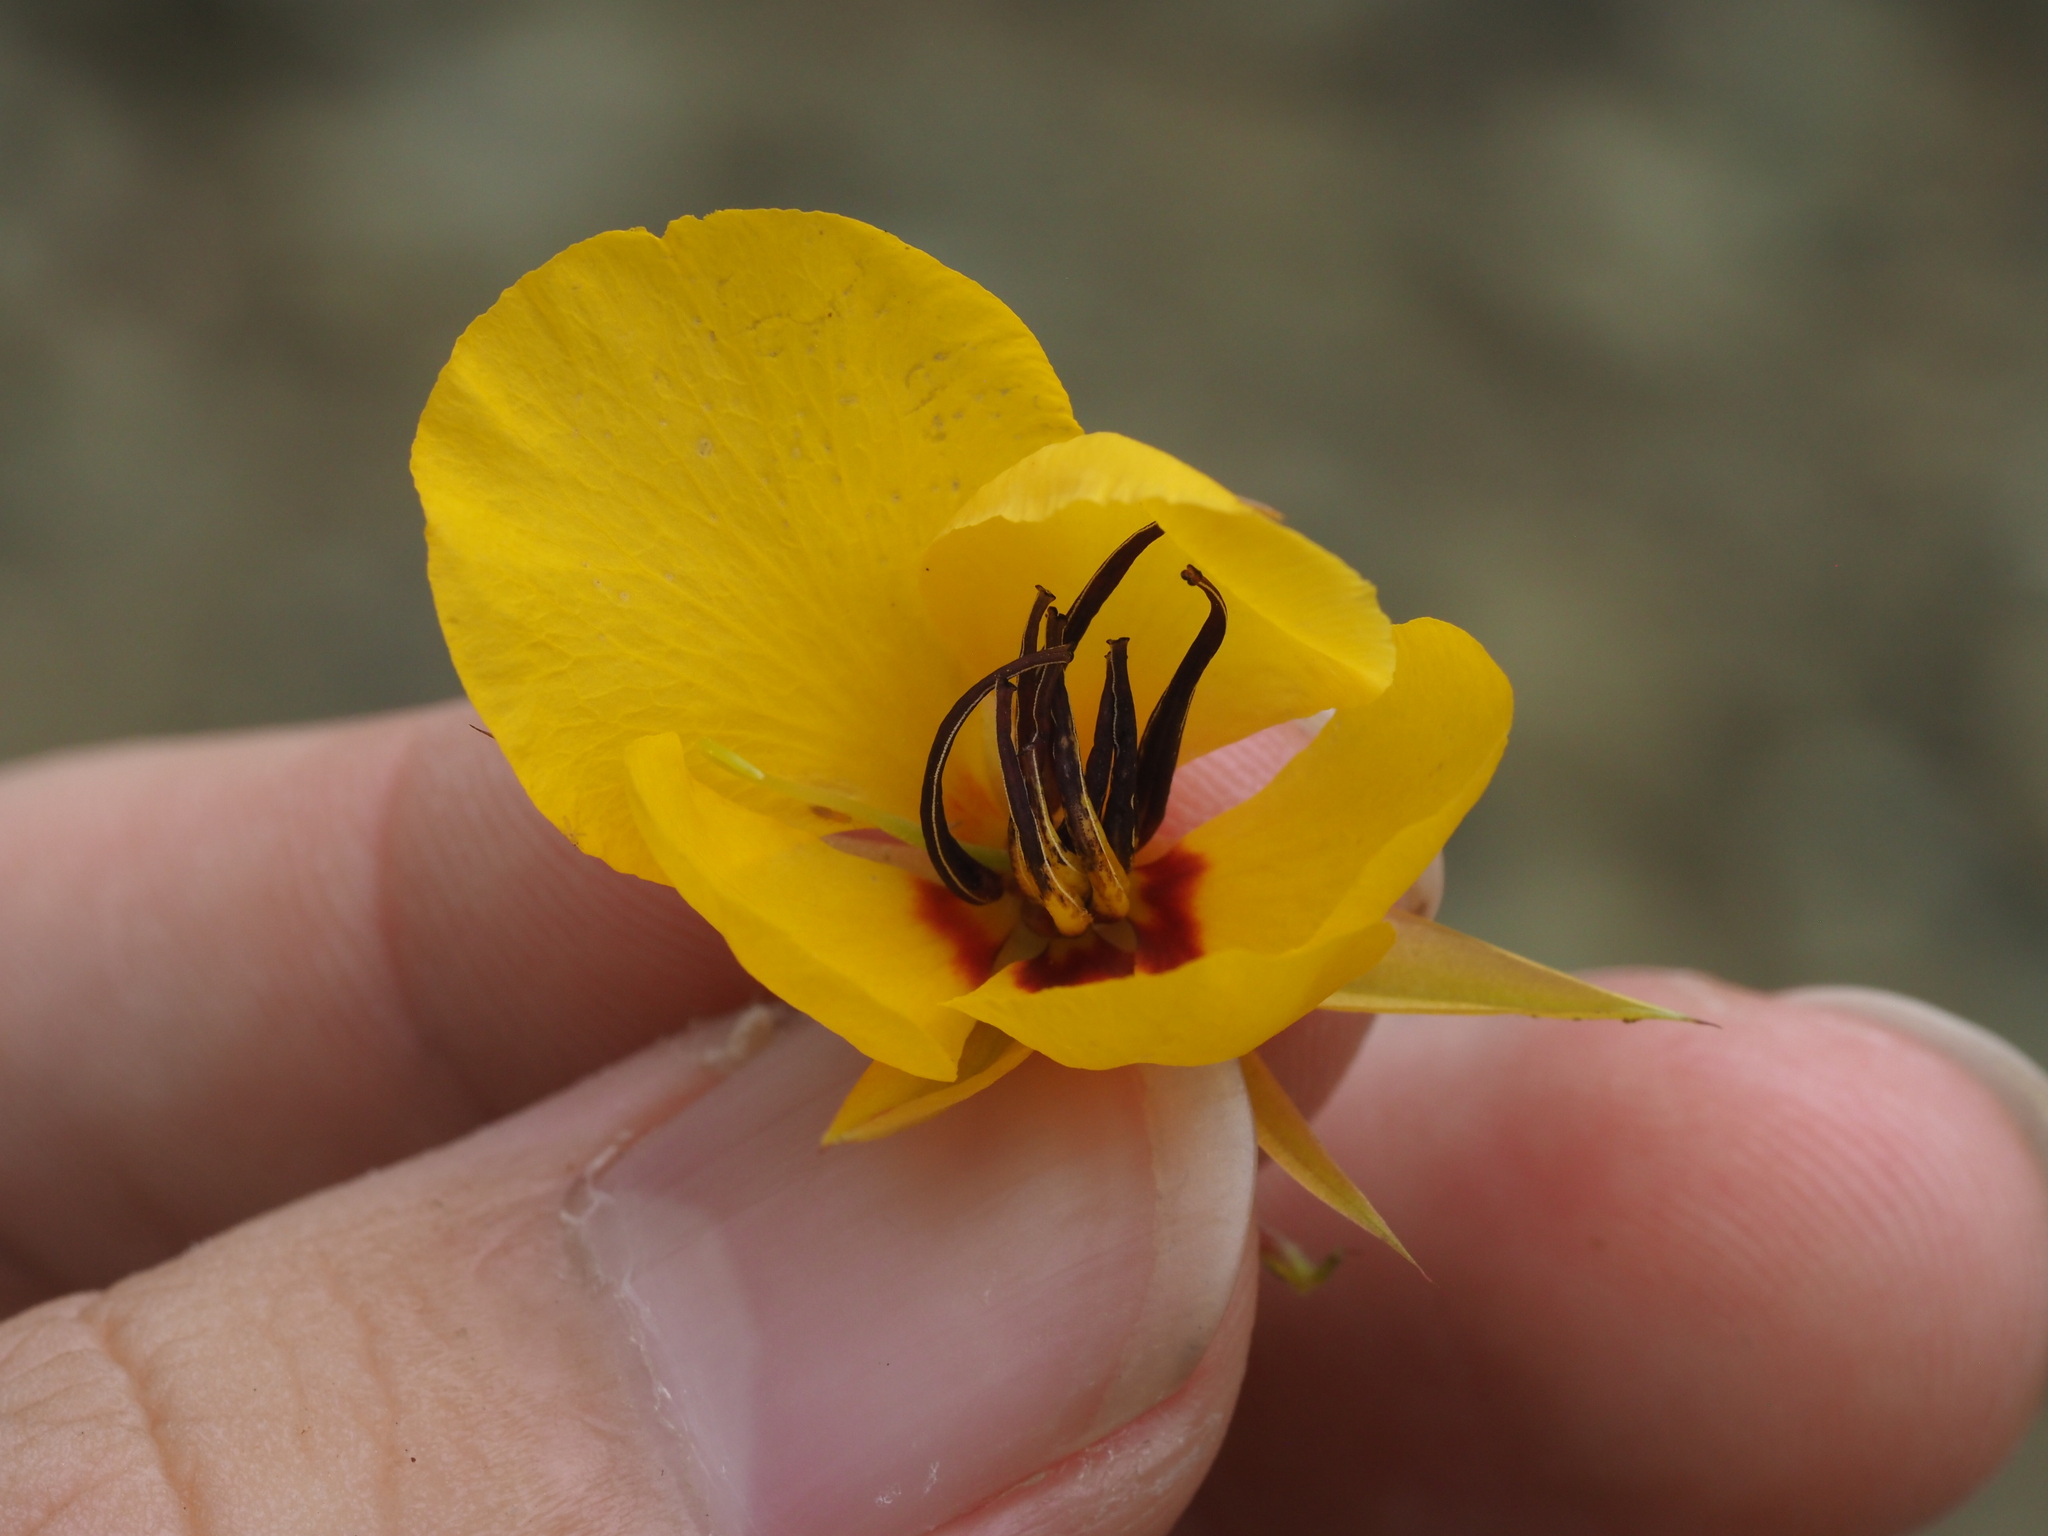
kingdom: Plantae
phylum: Tracheophyta
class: Magnoliopsida
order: Fabales
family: Fabaceae
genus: Chamaecrista
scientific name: Chamaecrista fasciculata
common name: Golden cassia
